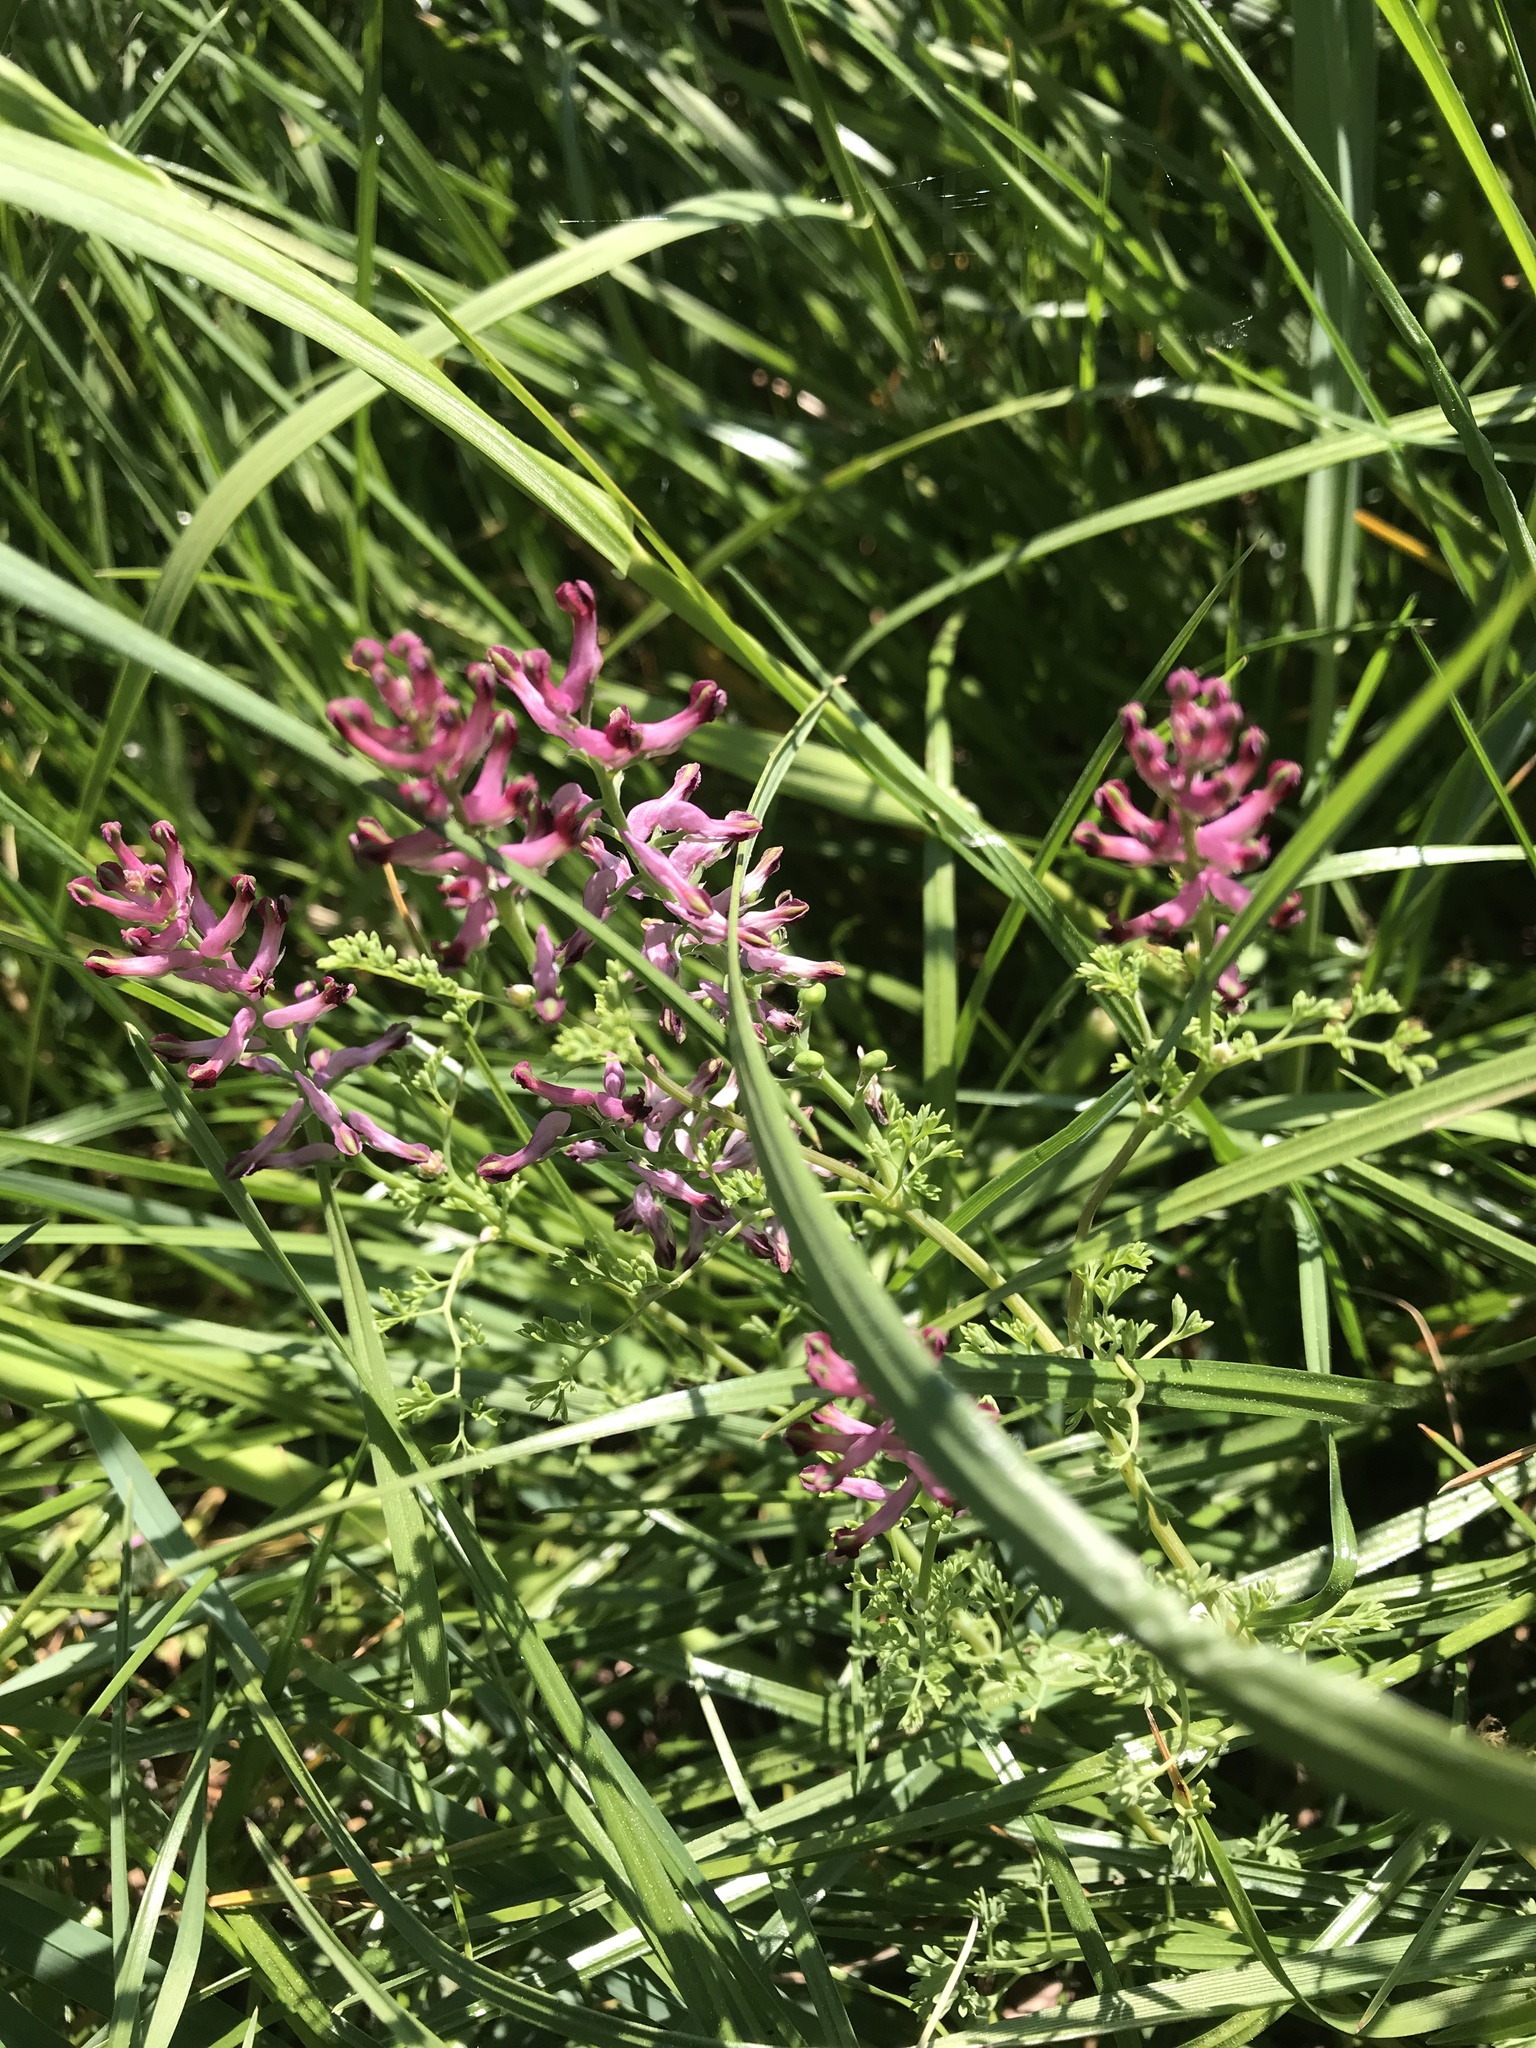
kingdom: Plantae
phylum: Tracheophyta
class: Magnoliopsida
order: Ranunculales
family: Papaveraceae
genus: Fumaria
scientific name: Fumaria officinalis
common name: Common fumitory
